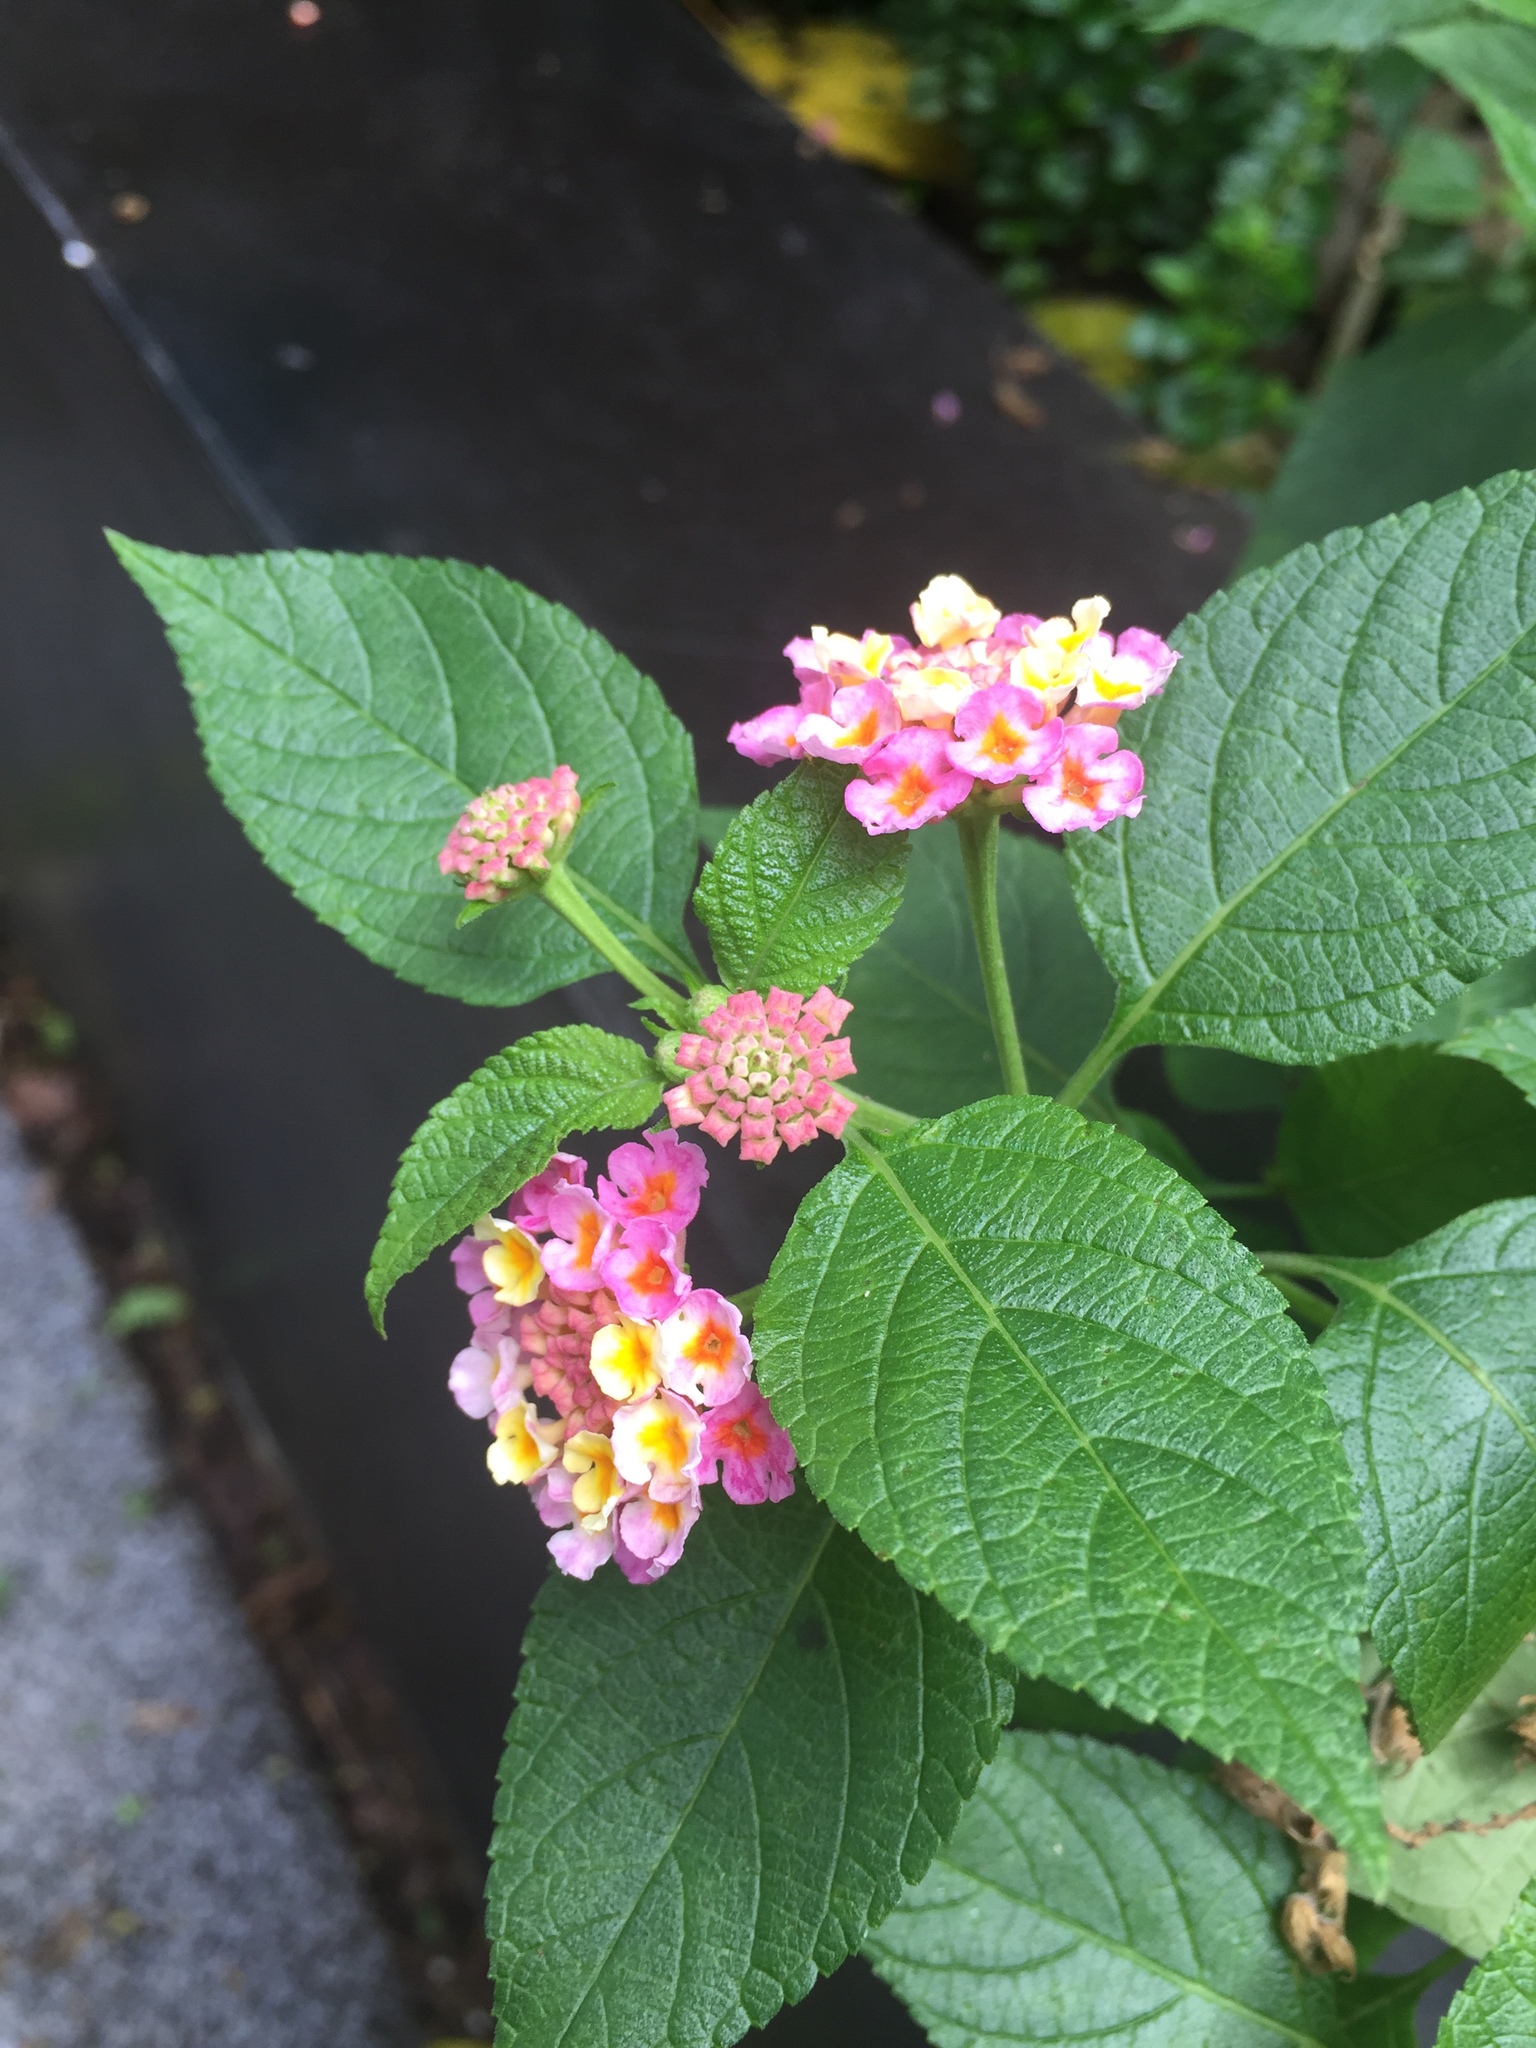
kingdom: Plantae
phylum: Tracheophyta
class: Magnoliopsida
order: Lamiales
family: Verbenaceae
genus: Lantana
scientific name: Lantana camara
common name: Lantana
